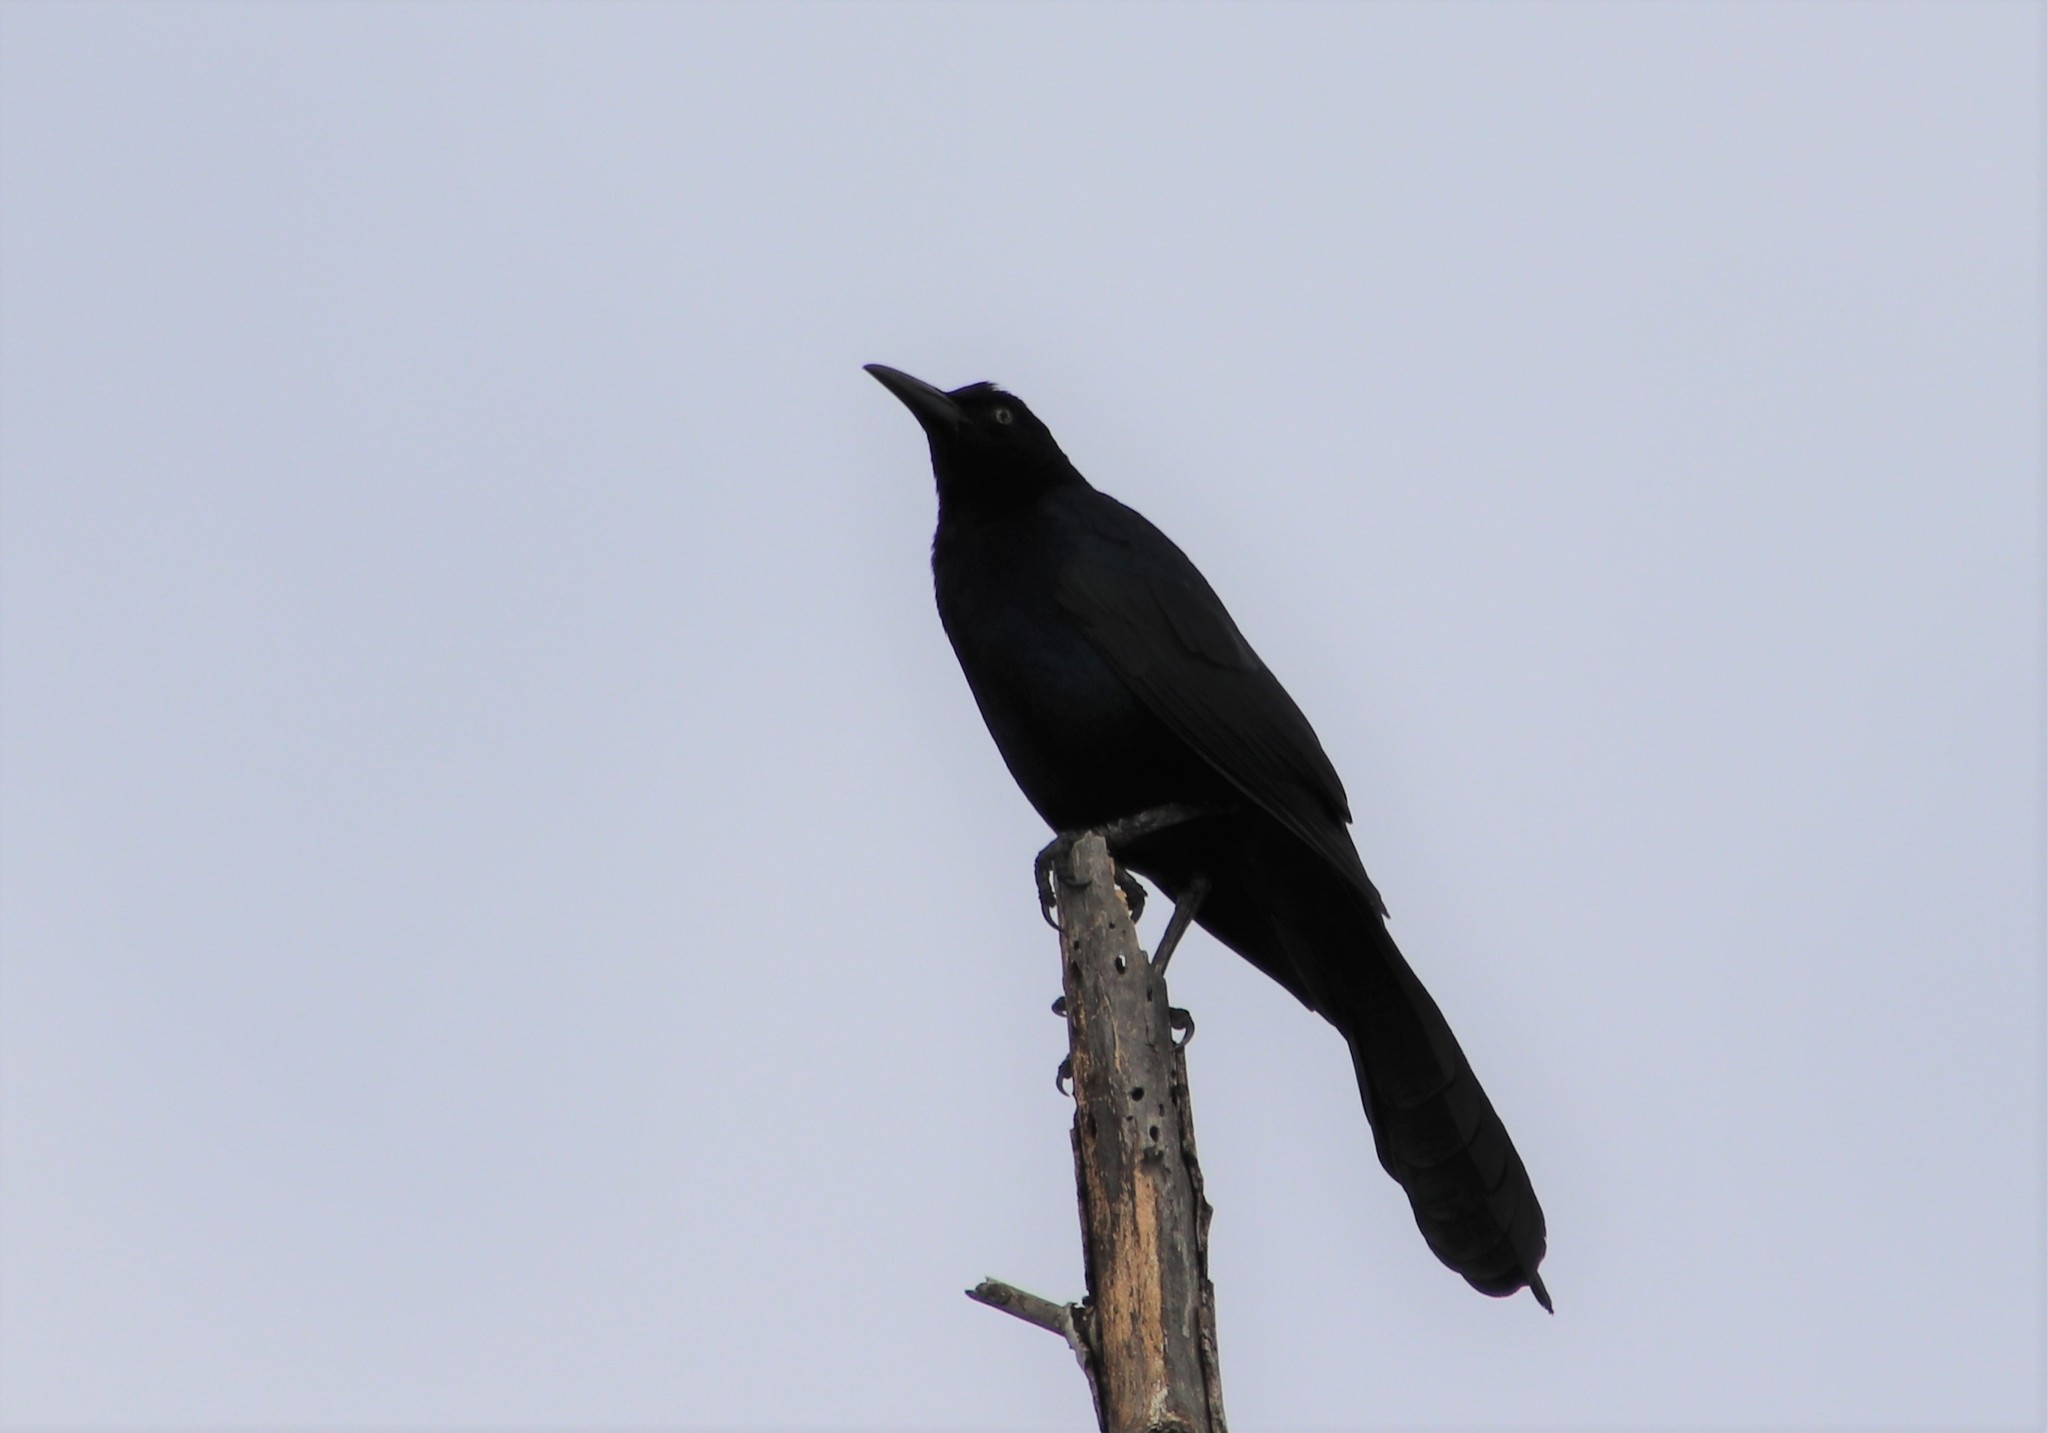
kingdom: Animalia
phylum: Chordata
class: Aves
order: Passeriformes
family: Icteridae
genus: Quiscalus
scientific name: Quiscalus mexicanus
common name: Great-tailed grackle
